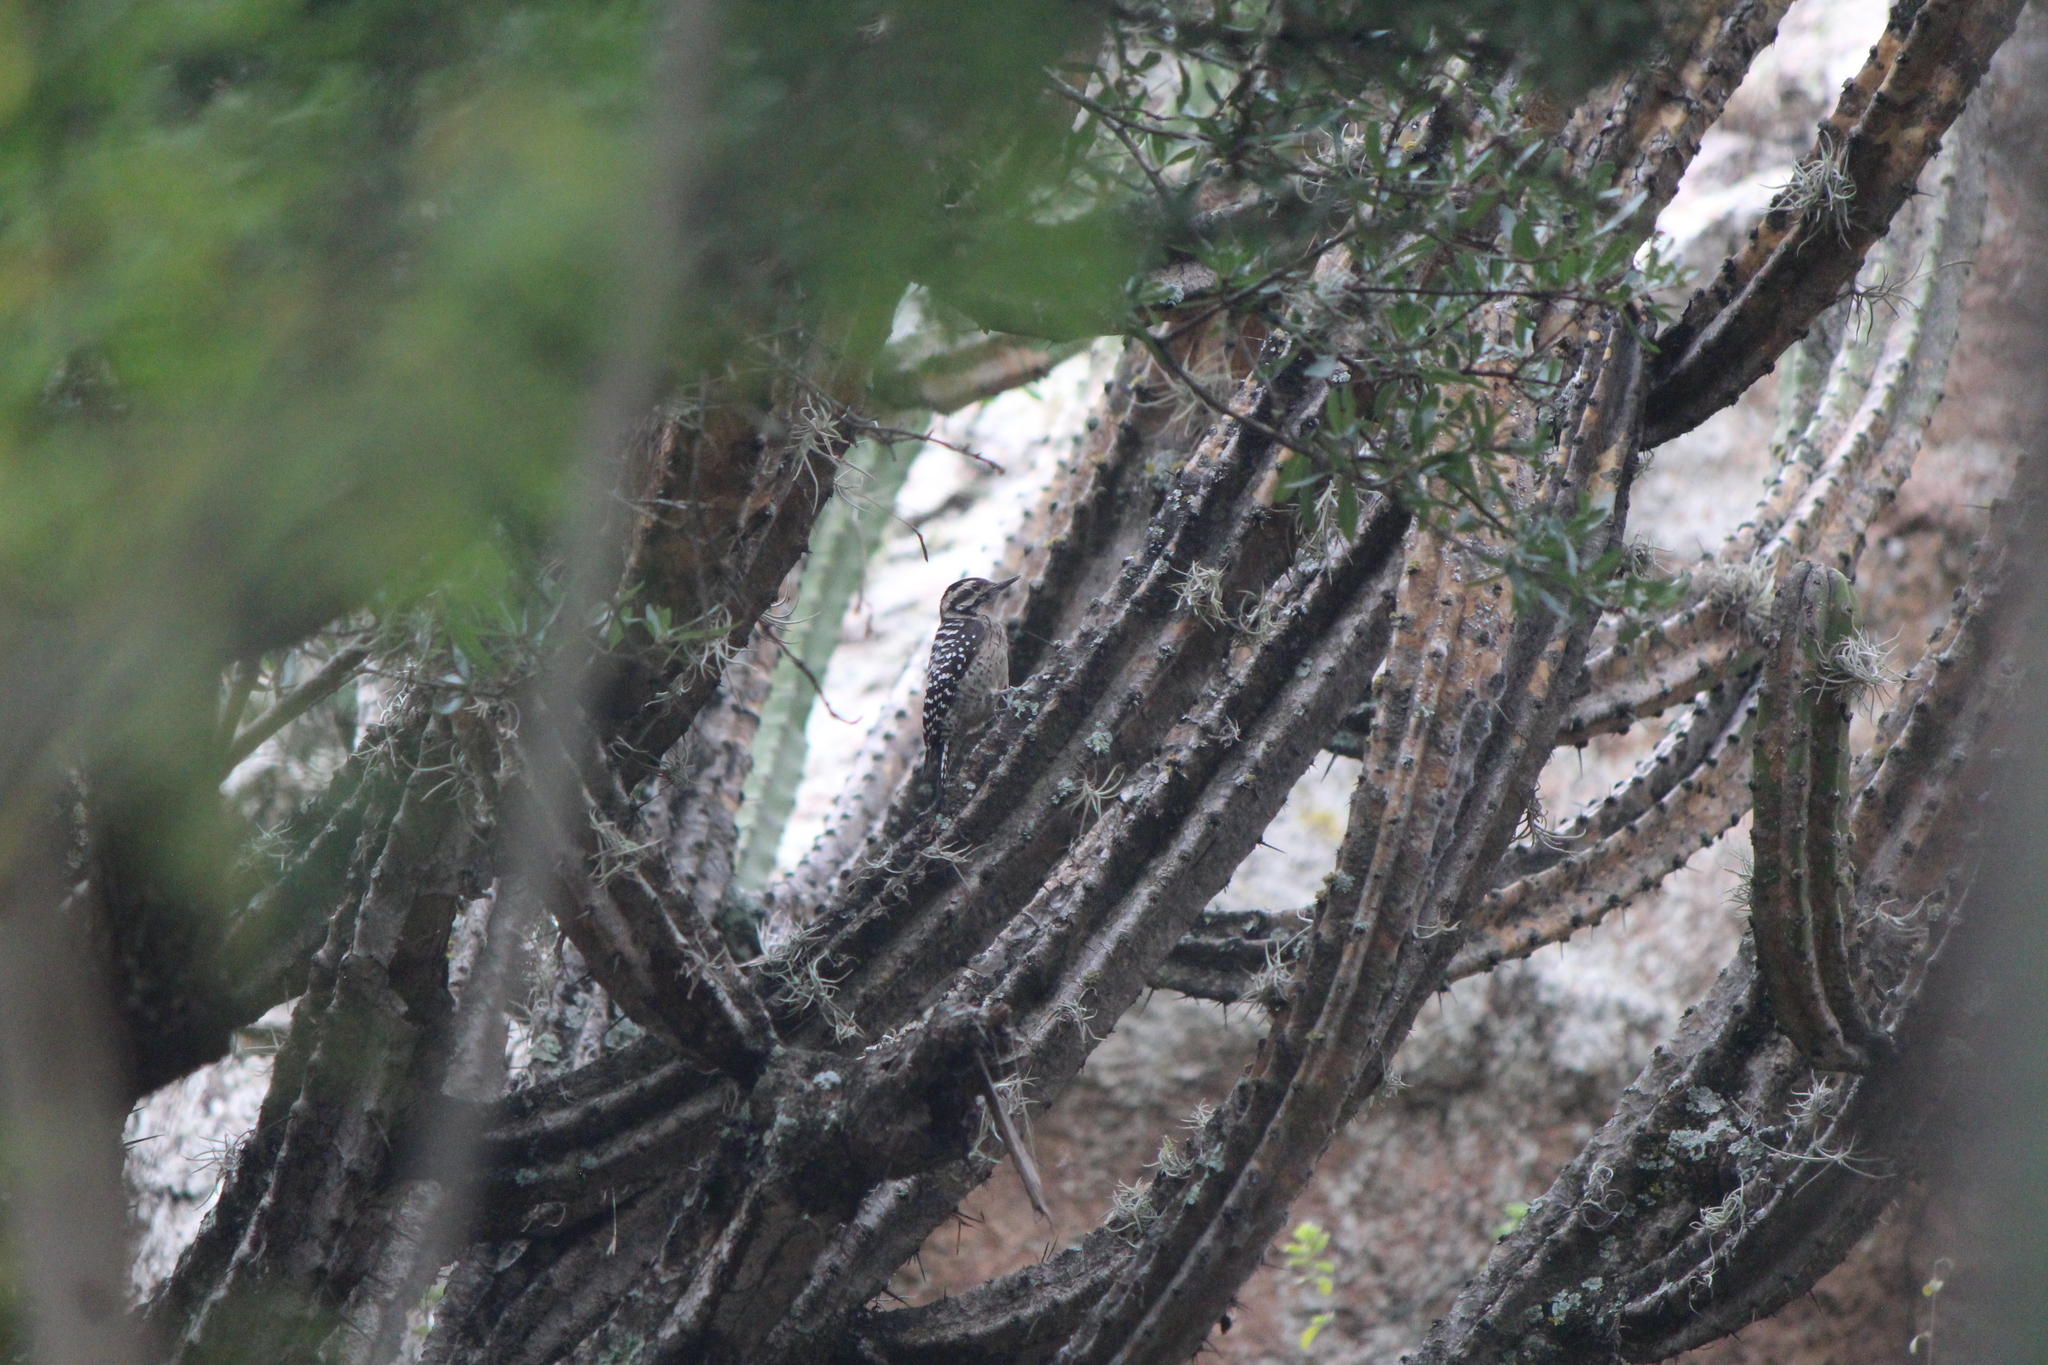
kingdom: Animalia
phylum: Chordata
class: Aves
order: Piciformes
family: Picidae
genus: Dryobates
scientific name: Dryobates scalaris
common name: Ladder-backed woodpecker
